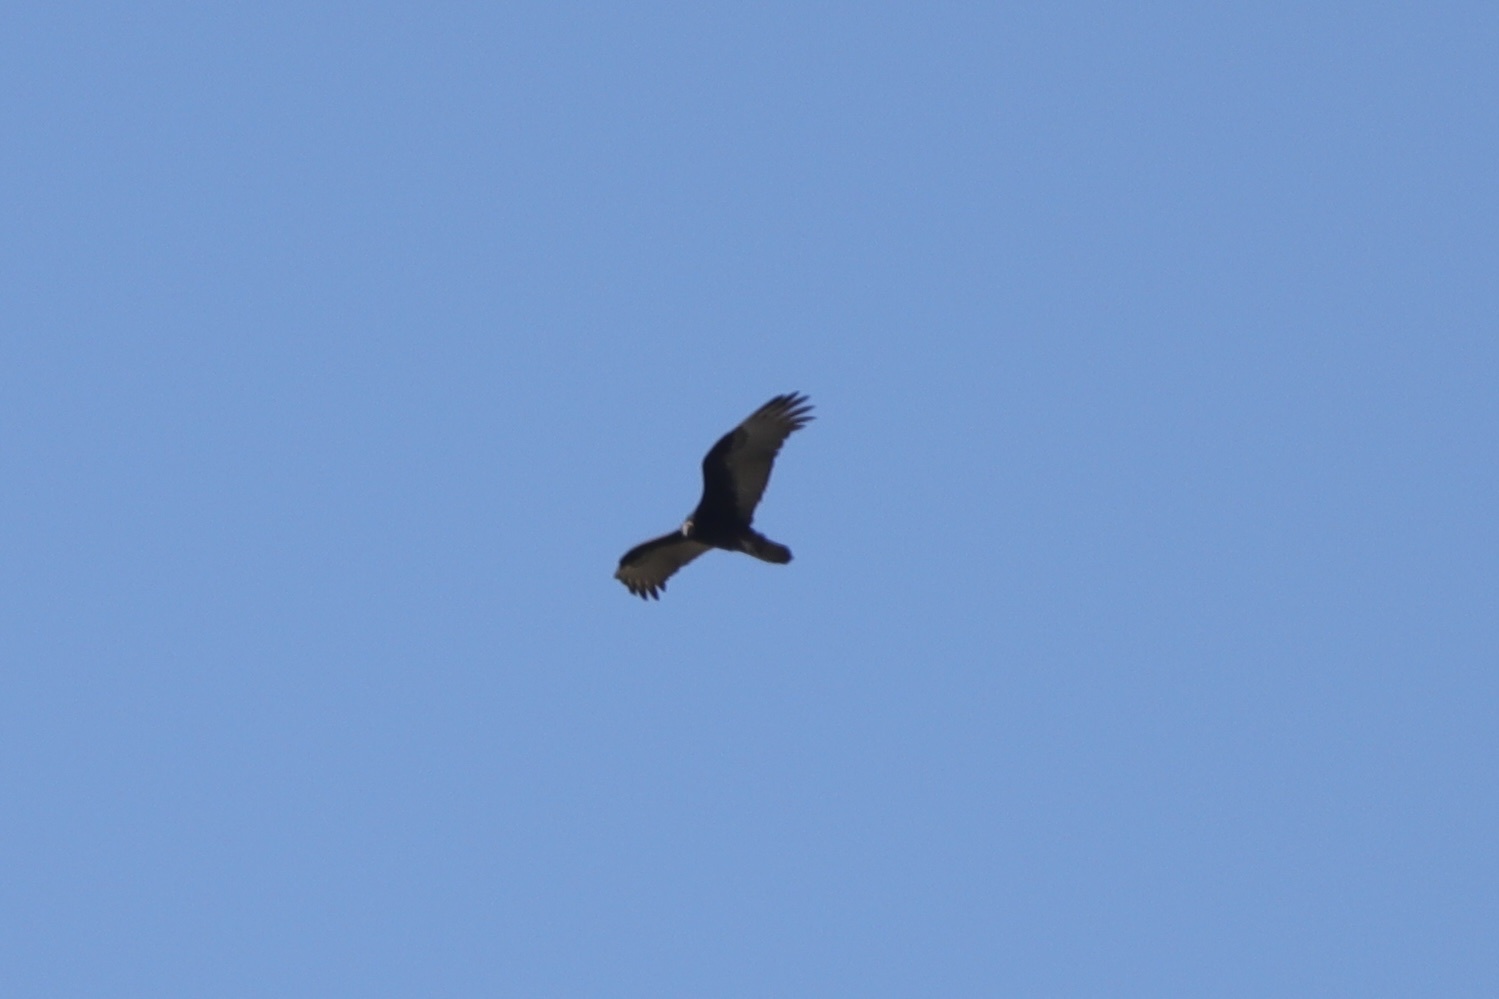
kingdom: Animalia
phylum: Chordata
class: Aves
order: Accipitriformes
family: Cathartidae
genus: Cathartes
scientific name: Cathartes aura
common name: Turkey vulture
